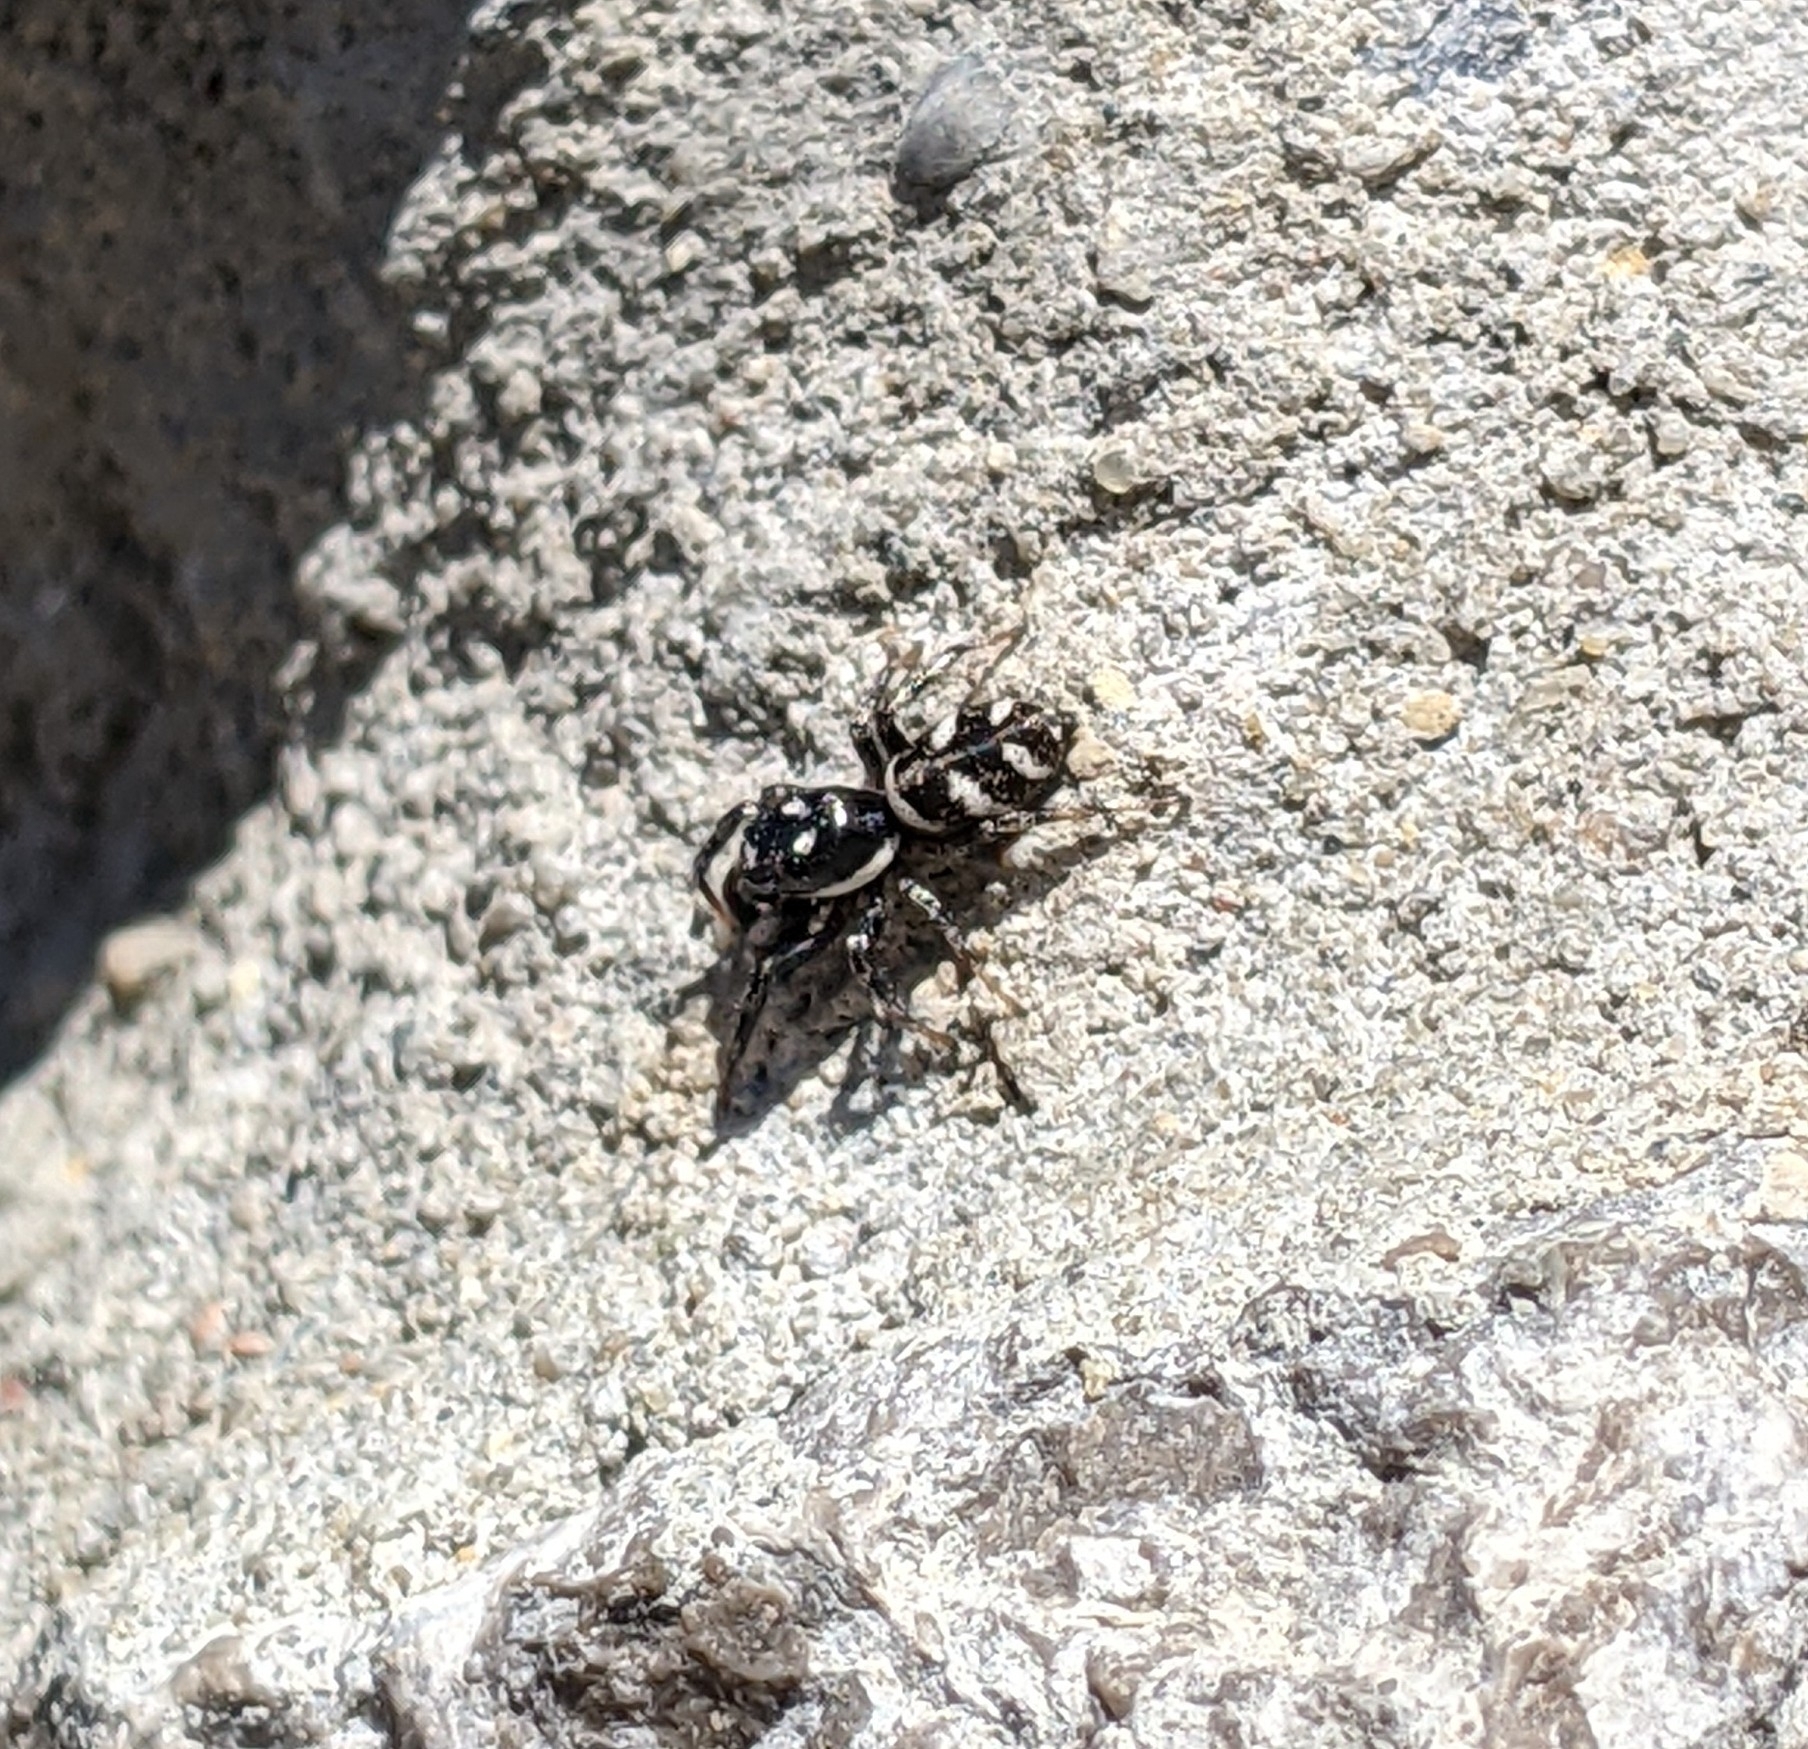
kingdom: Animalia
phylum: Arthropoda
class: Arachnida
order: Araneae
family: Salticidae
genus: Salticus
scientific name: Salticus scenicus
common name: Zebra jumper
